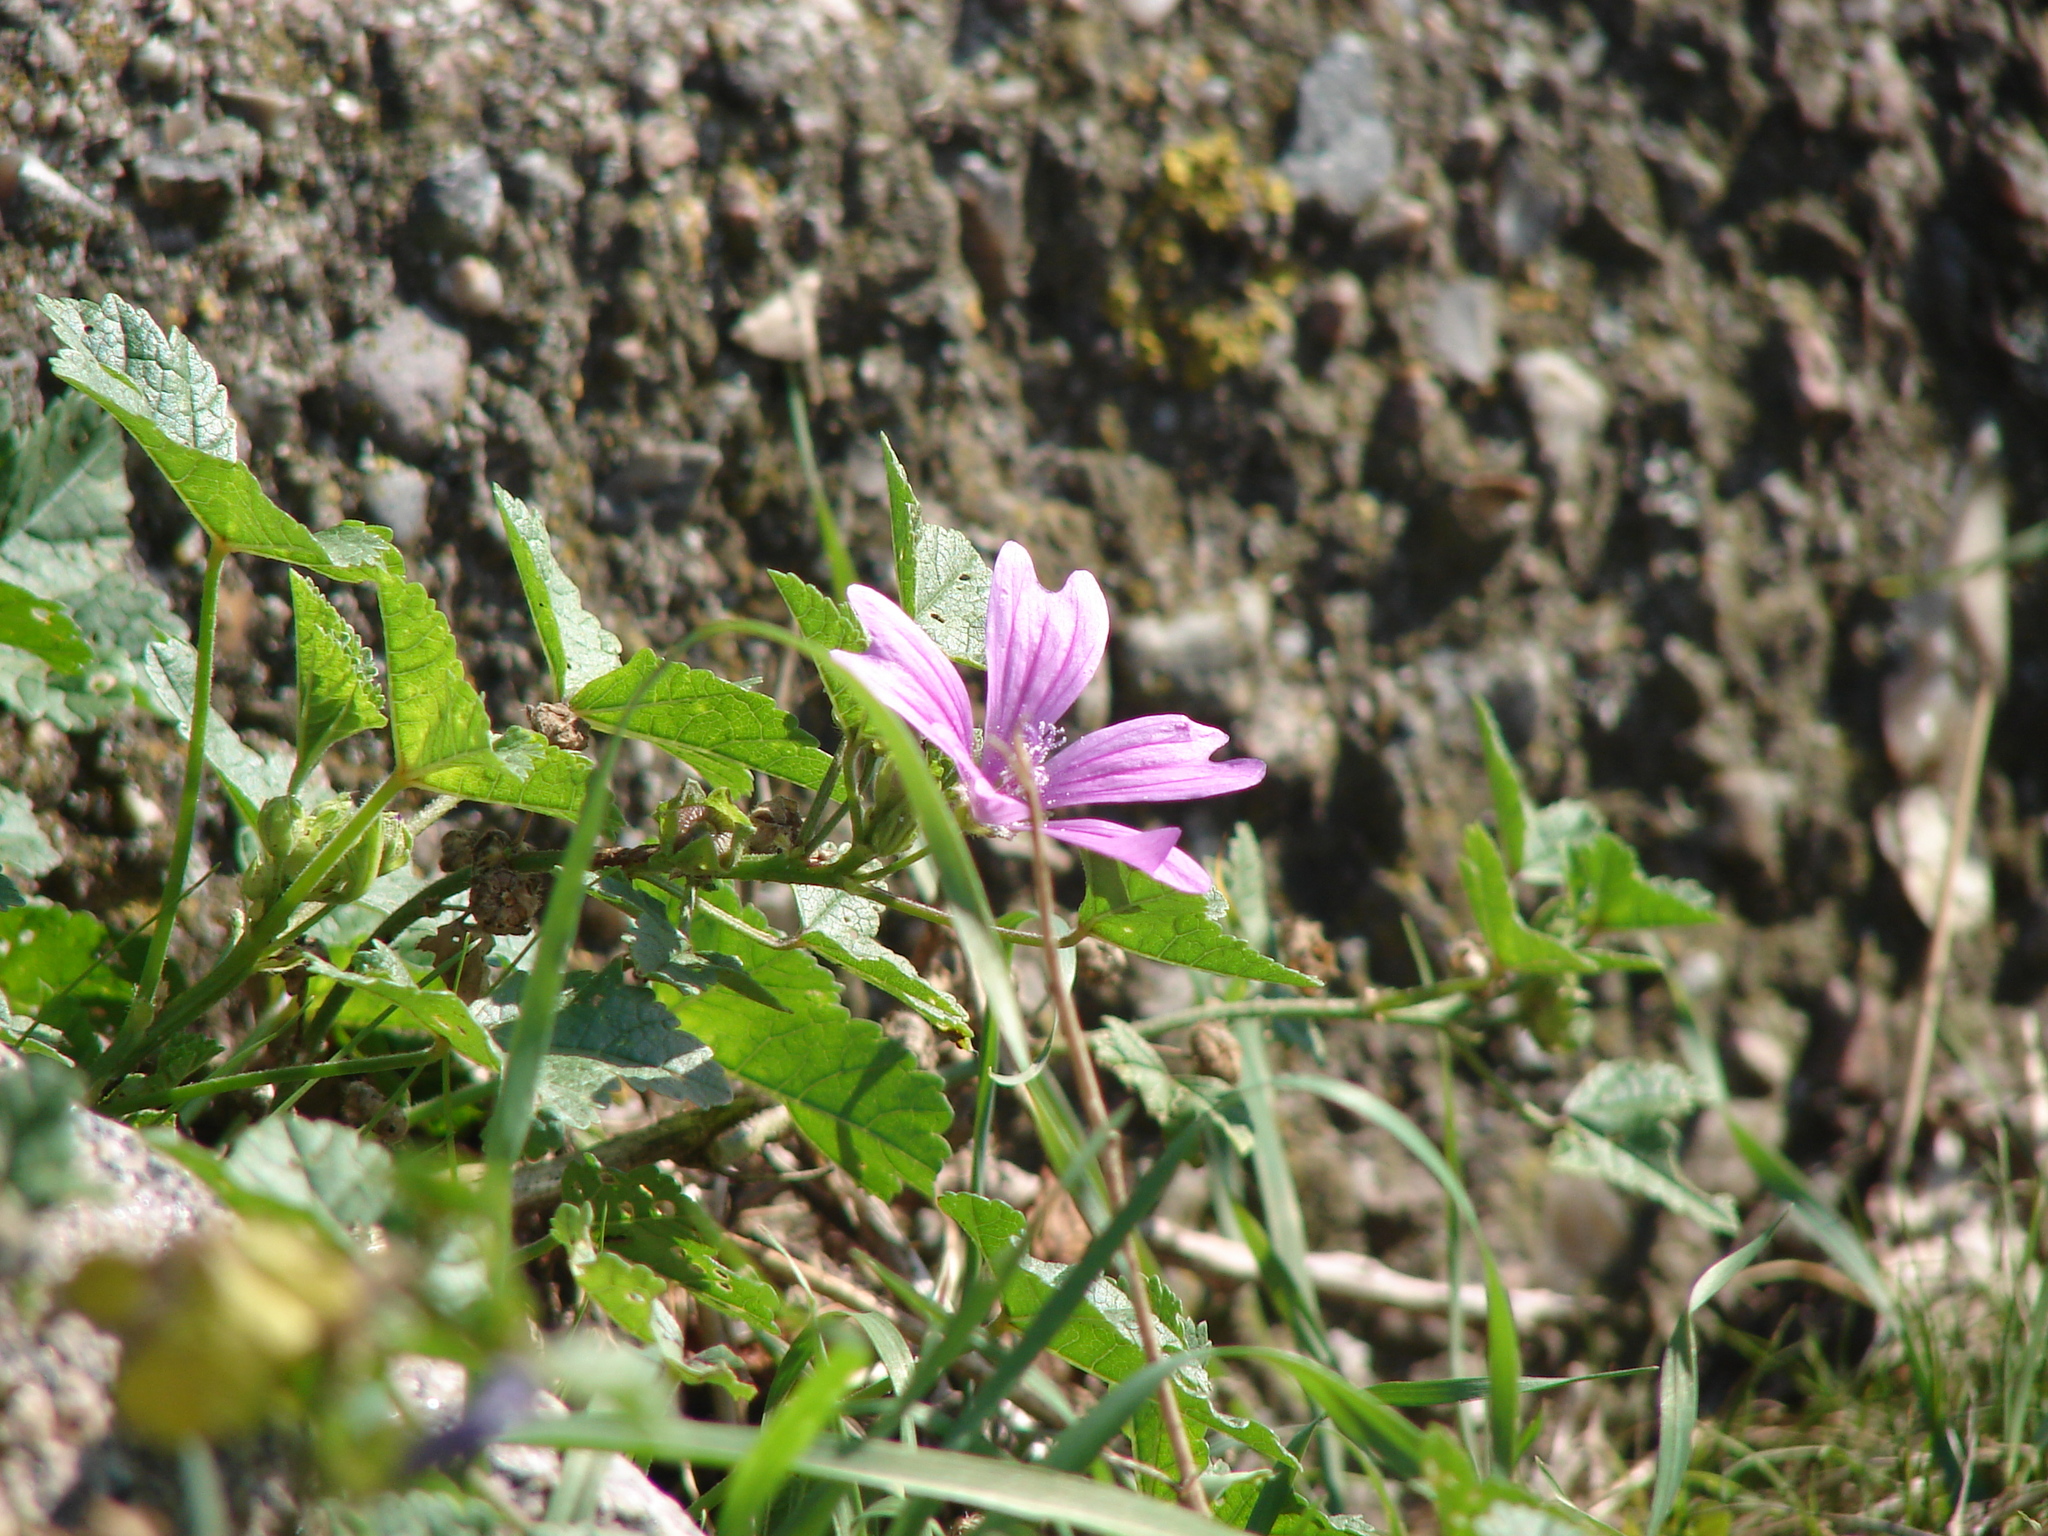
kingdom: Plantae
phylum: Tracheophyta
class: Magnoliopsida
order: Malvales
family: Malvaceae
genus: Malva
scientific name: Malva sylvestris
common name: Common mallow
